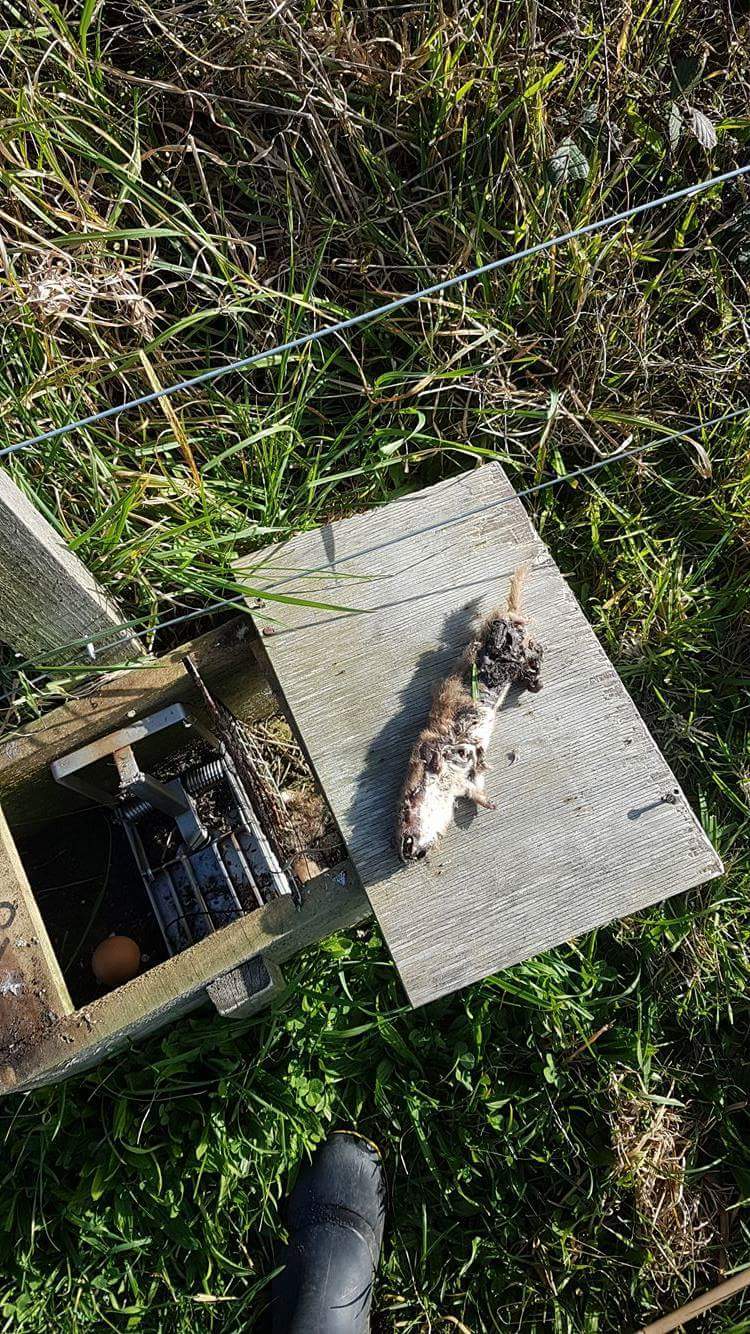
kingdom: Animalia
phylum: Chordata
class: Mammalia
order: Carnivora
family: Mustelidae
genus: Mustela
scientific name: Mustela nivalis
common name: Least weasel
